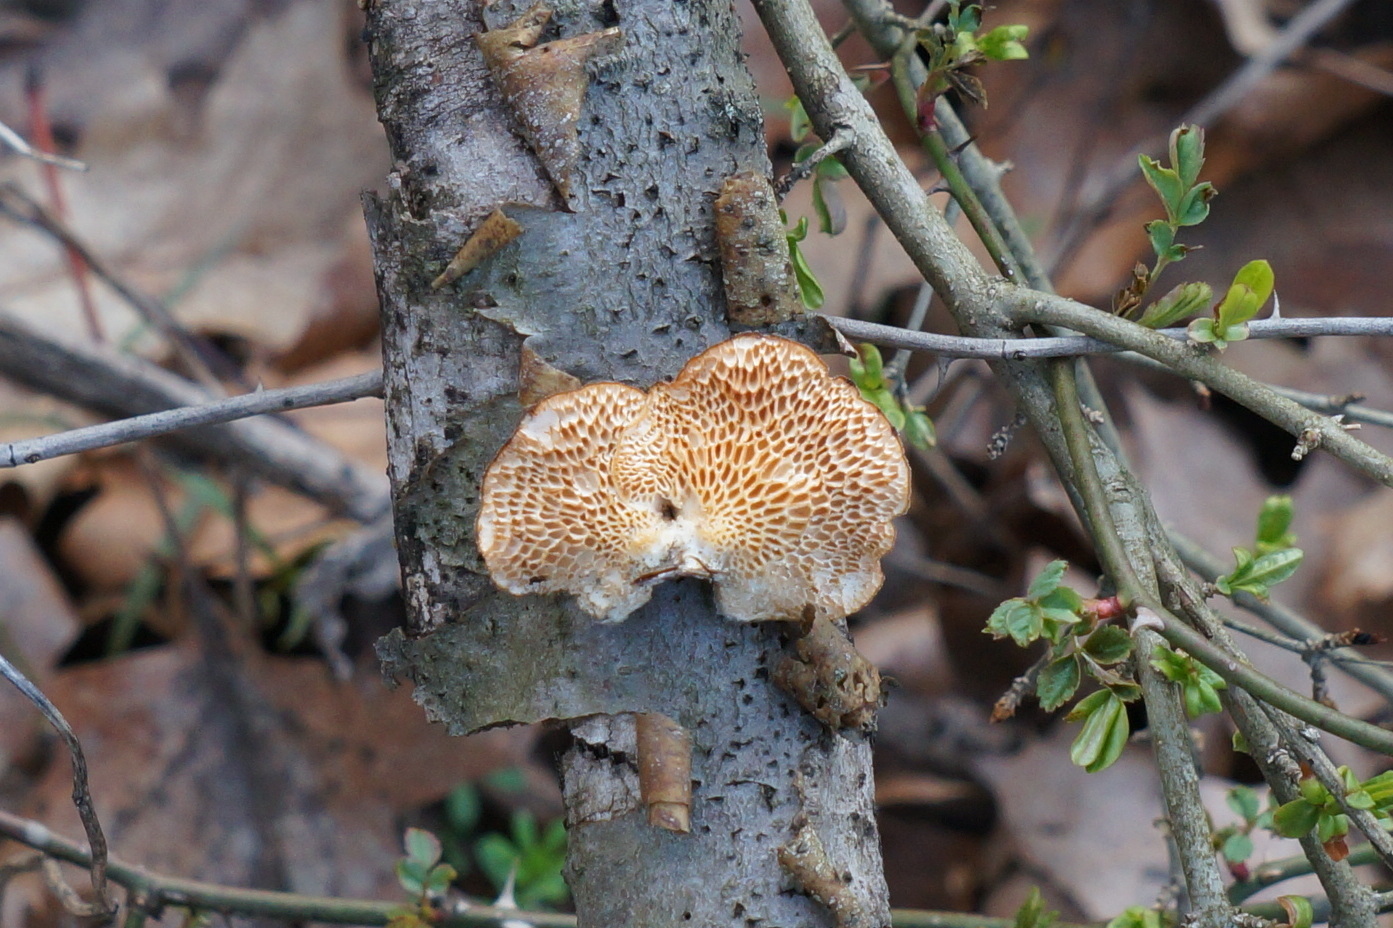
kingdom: Fungi
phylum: Basidiomycota
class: Agaricomycetes
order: Polyporales
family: Polyporaceae
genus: Neofavolus
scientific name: Neofavolus alveolaris
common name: Hexagonal-pored polypore
